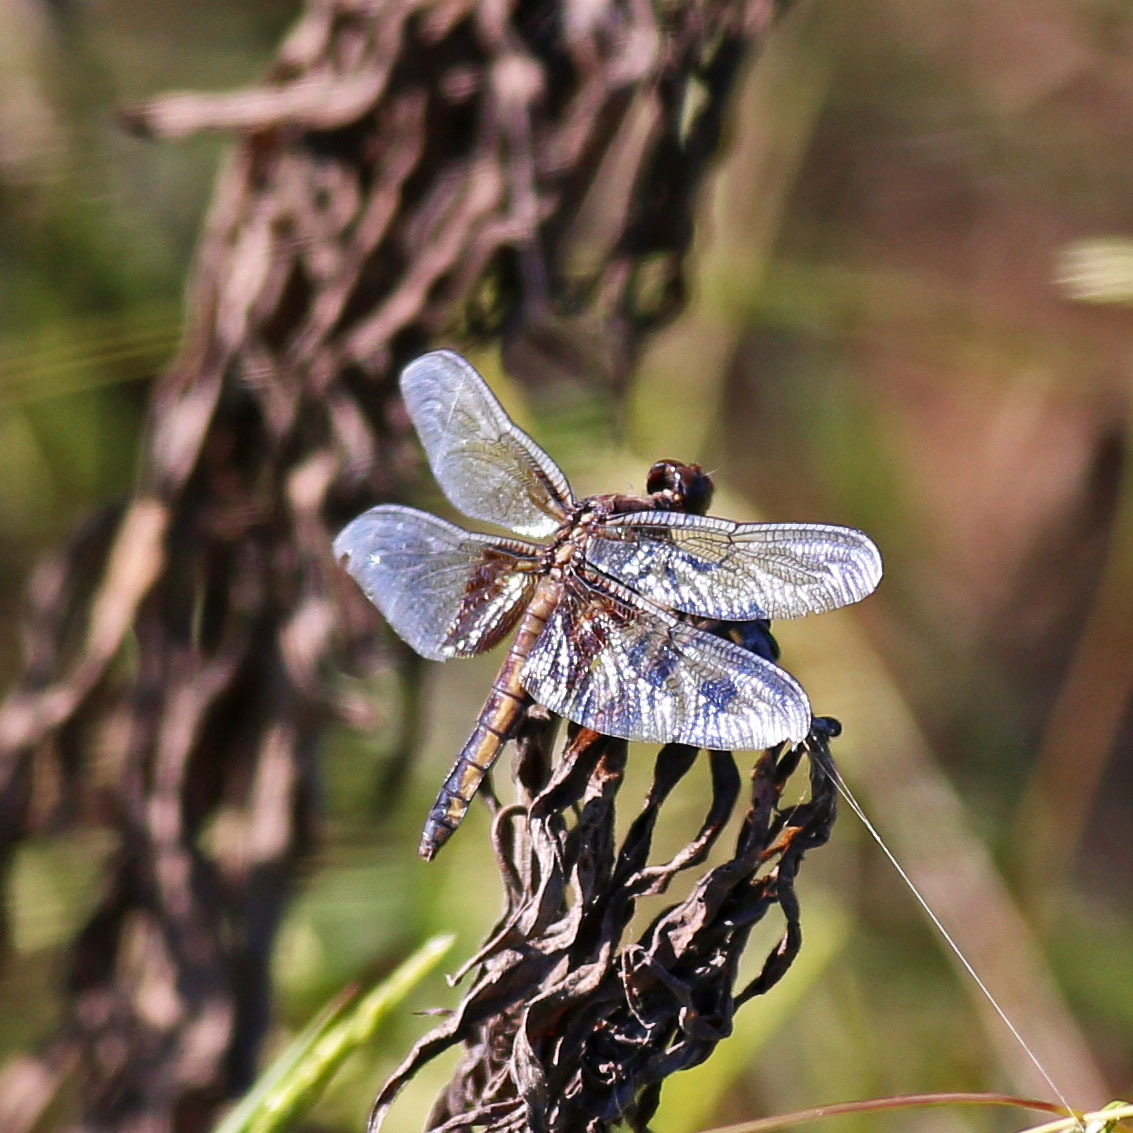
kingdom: Animalia
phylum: Arthropoda
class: Insecta
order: Odonata
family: Libellulidae
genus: Libellula
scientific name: Libellula luctuosa
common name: Widow skimmer
